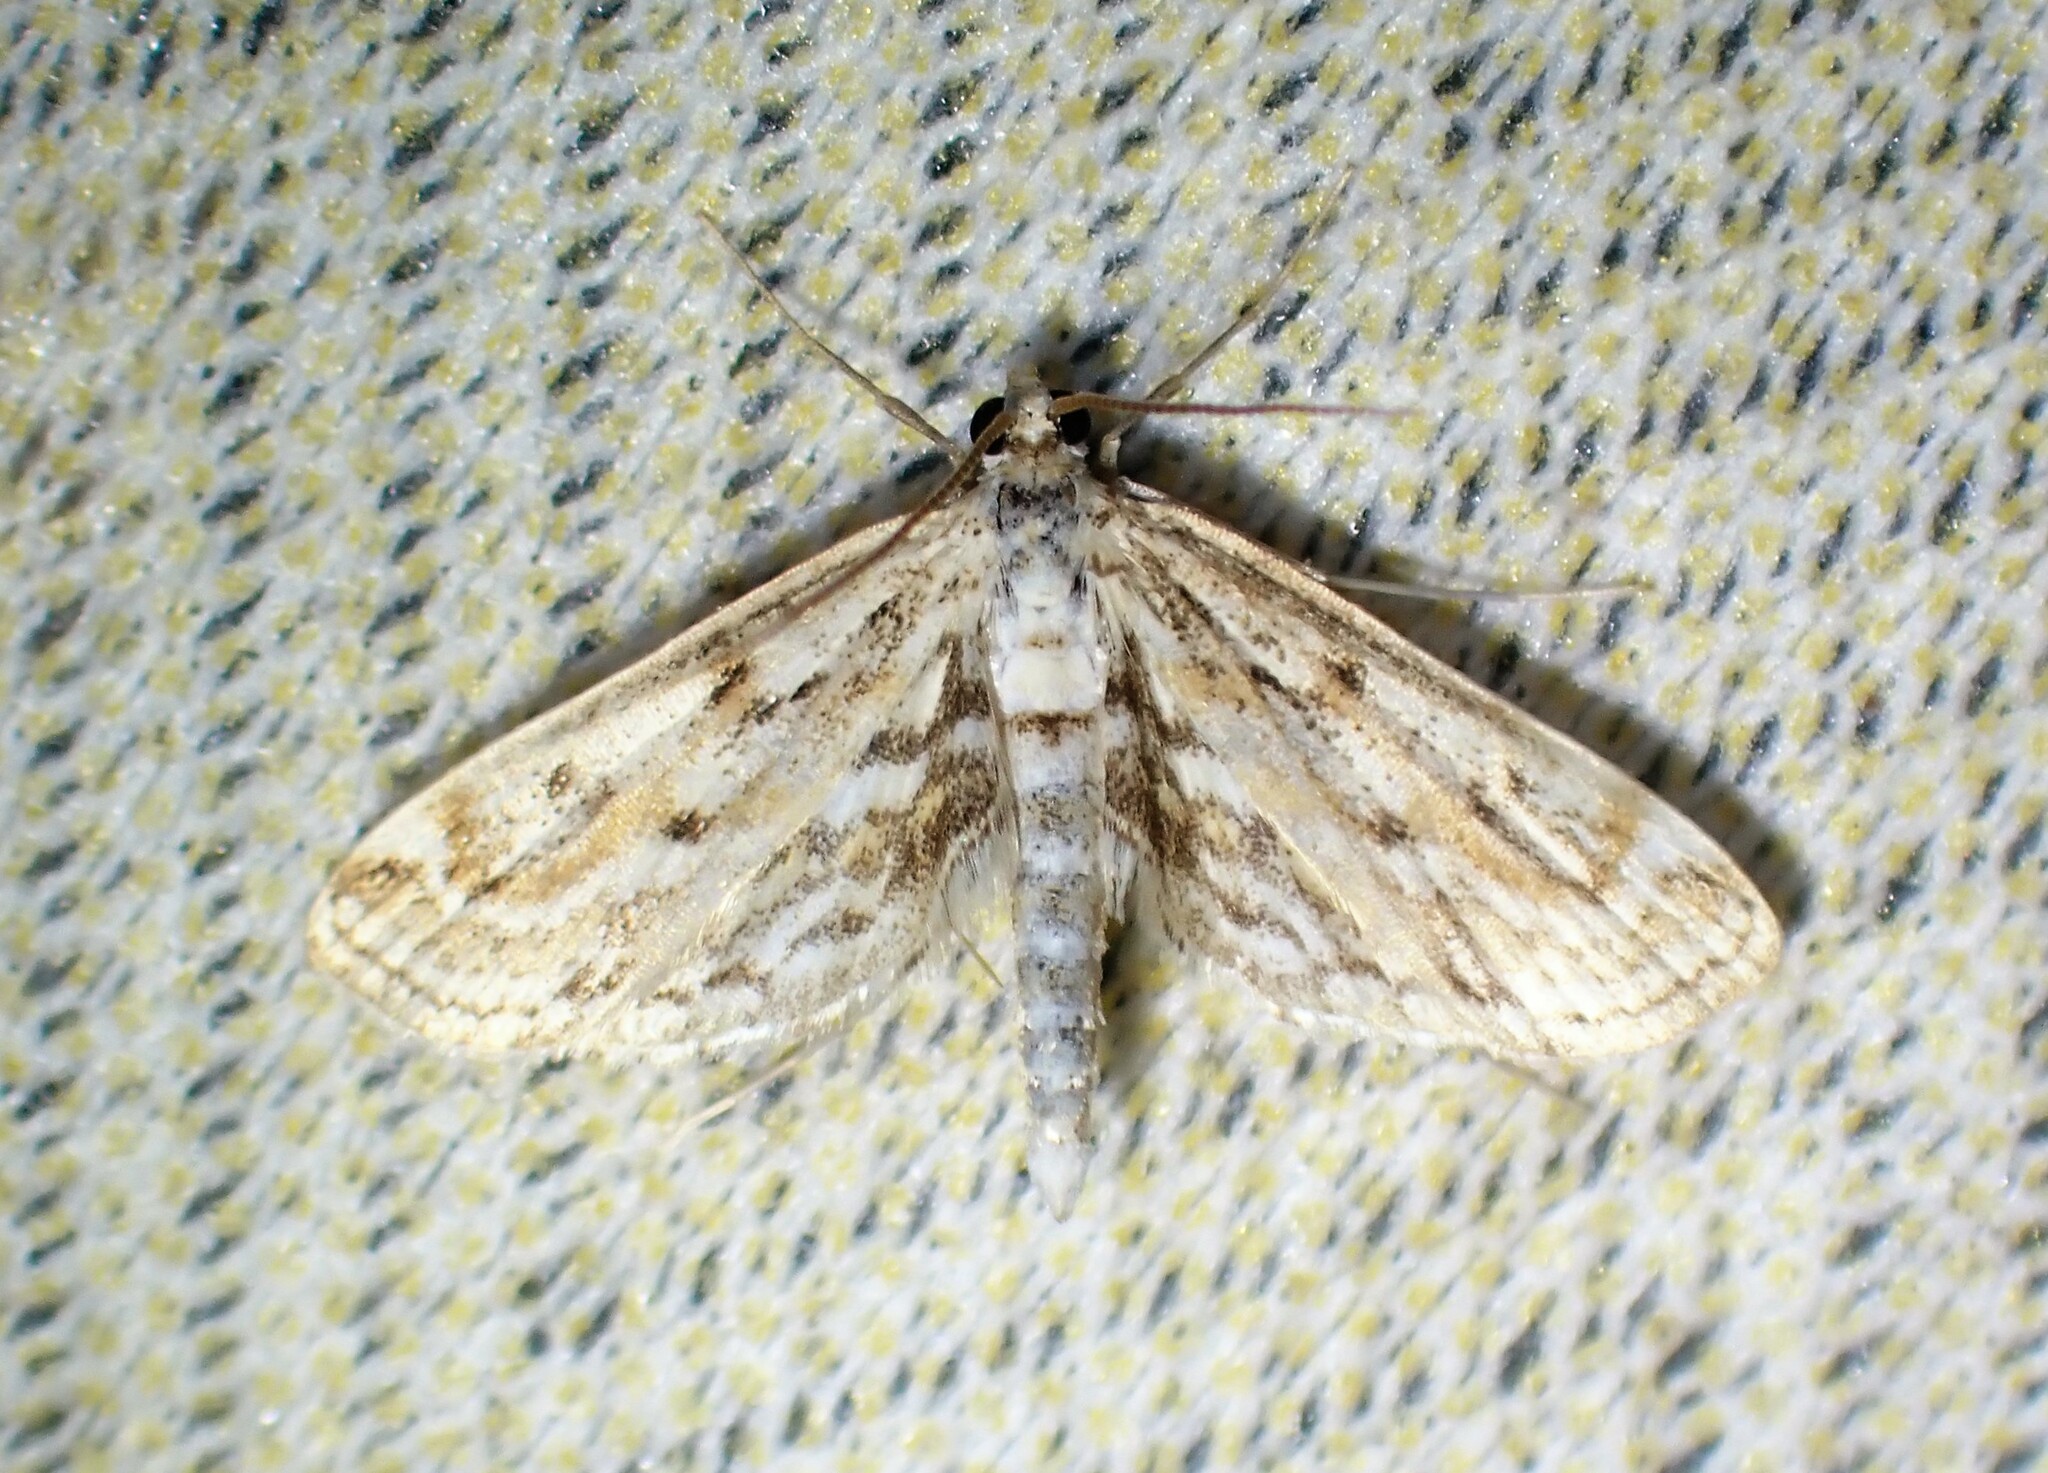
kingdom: Animalia
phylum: Arthropoda
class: Insecta
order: Lepidoptera
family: Crambidae
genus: Parapoynx
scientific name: Parapoynx allionealis
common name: Bladderwort casemaker
